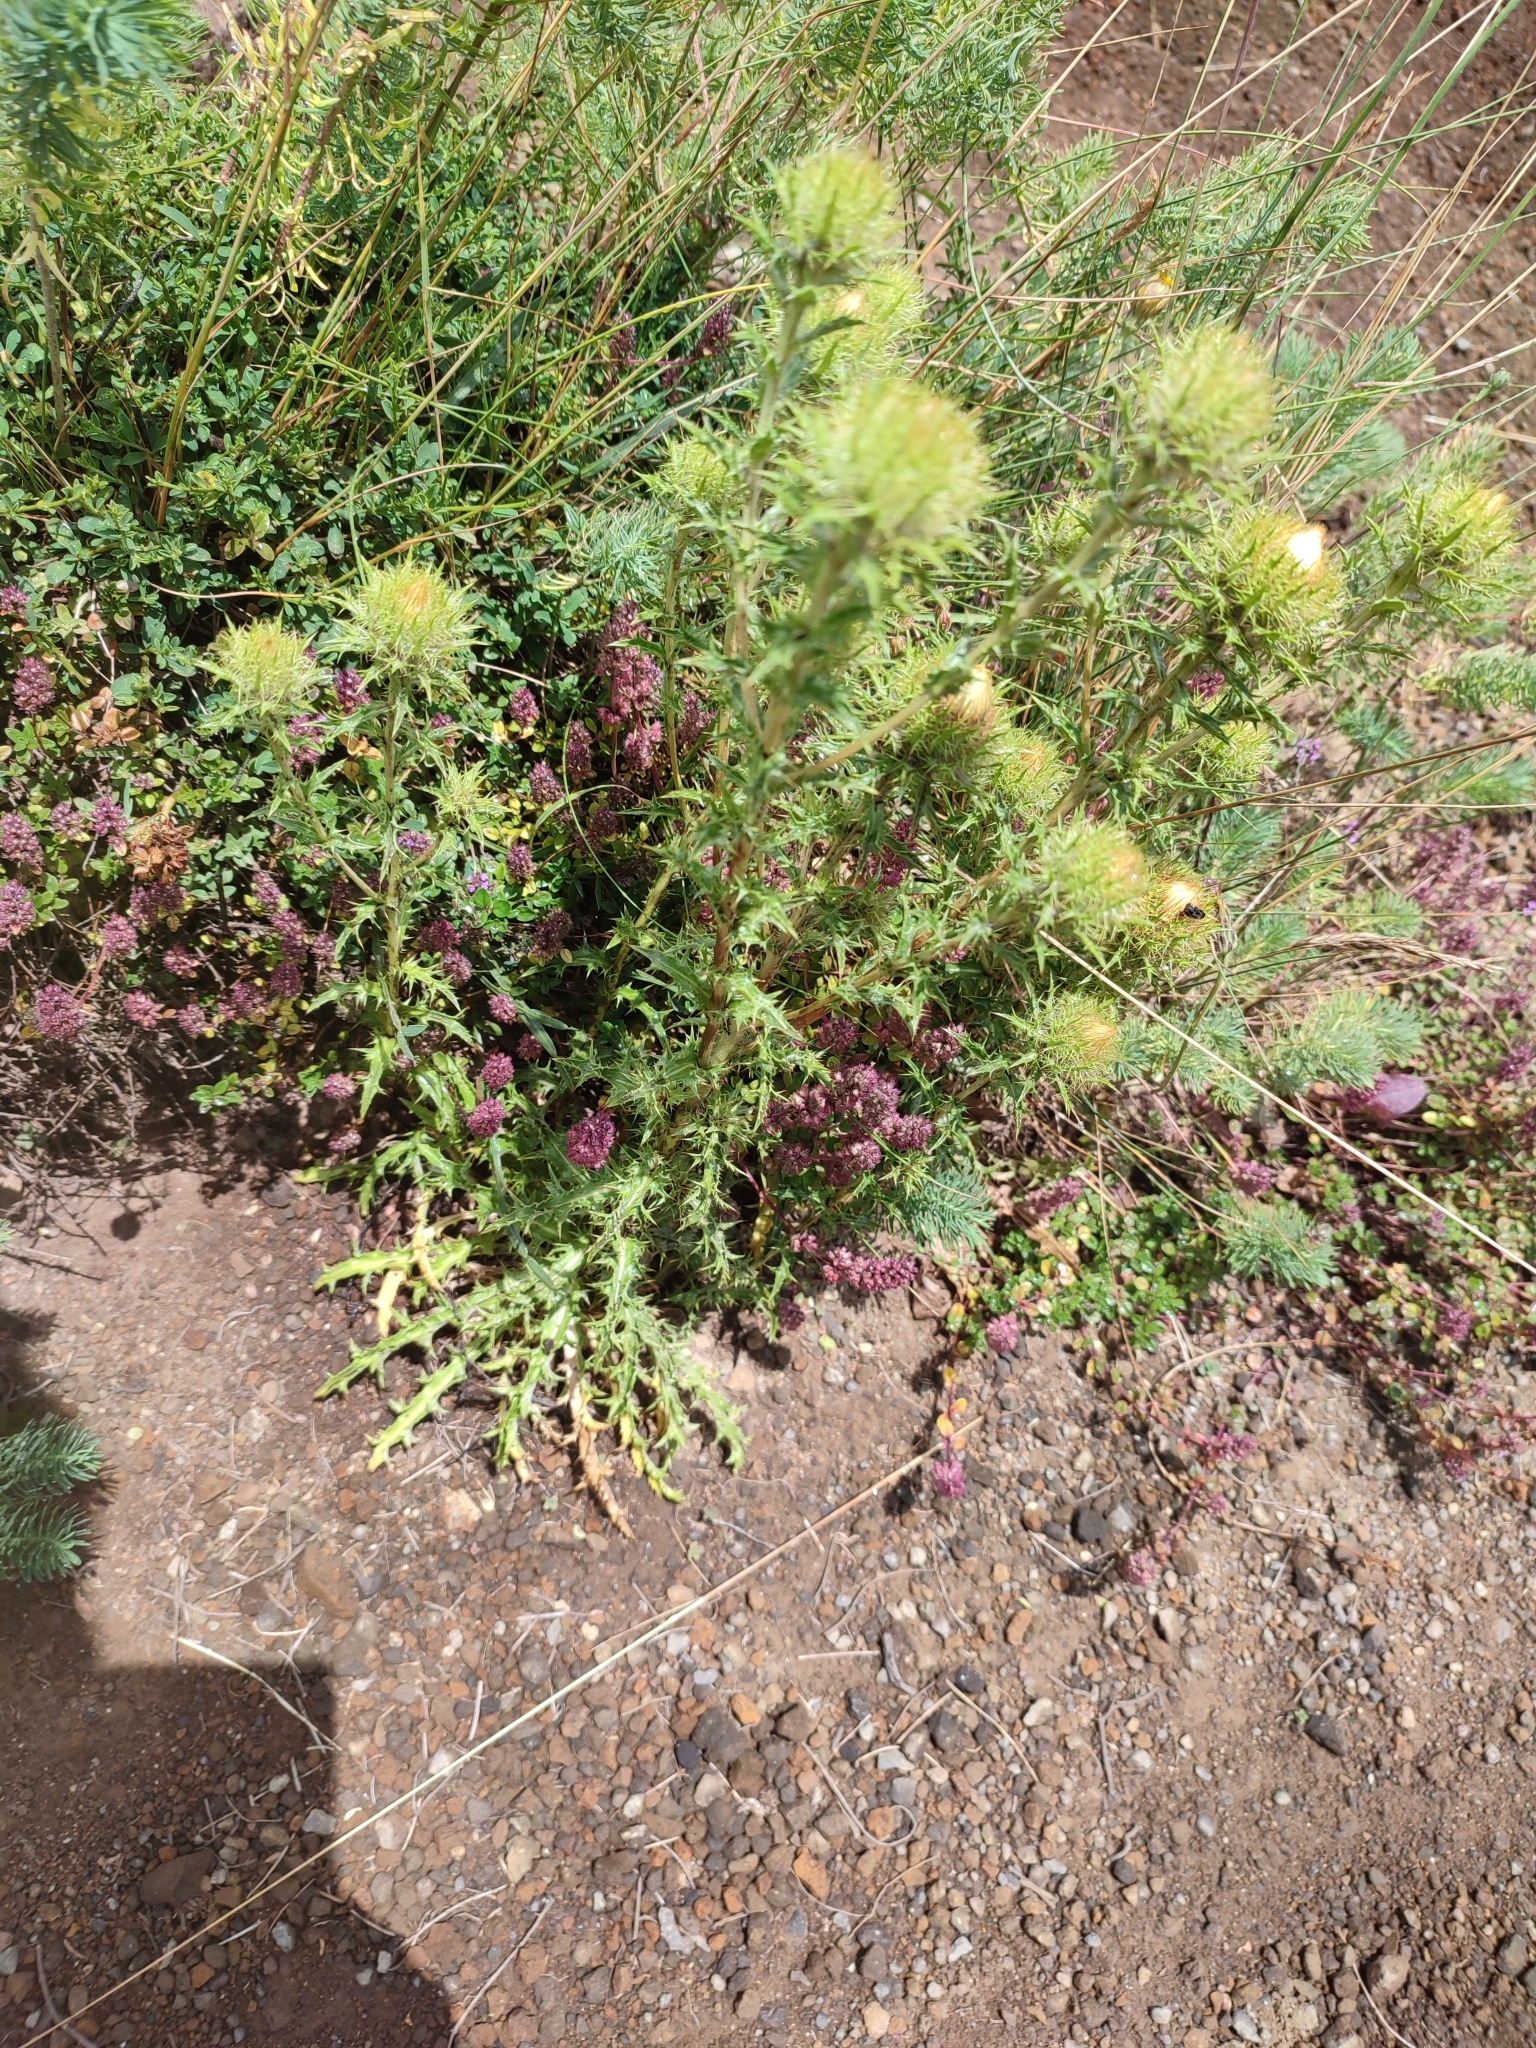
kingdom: Plantae
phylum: Tracheophyta
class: Magnoliopsida
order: Asterales
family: Asteraceae
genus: Carlina
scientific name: Carlina vulgaris
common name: Carline thistle
